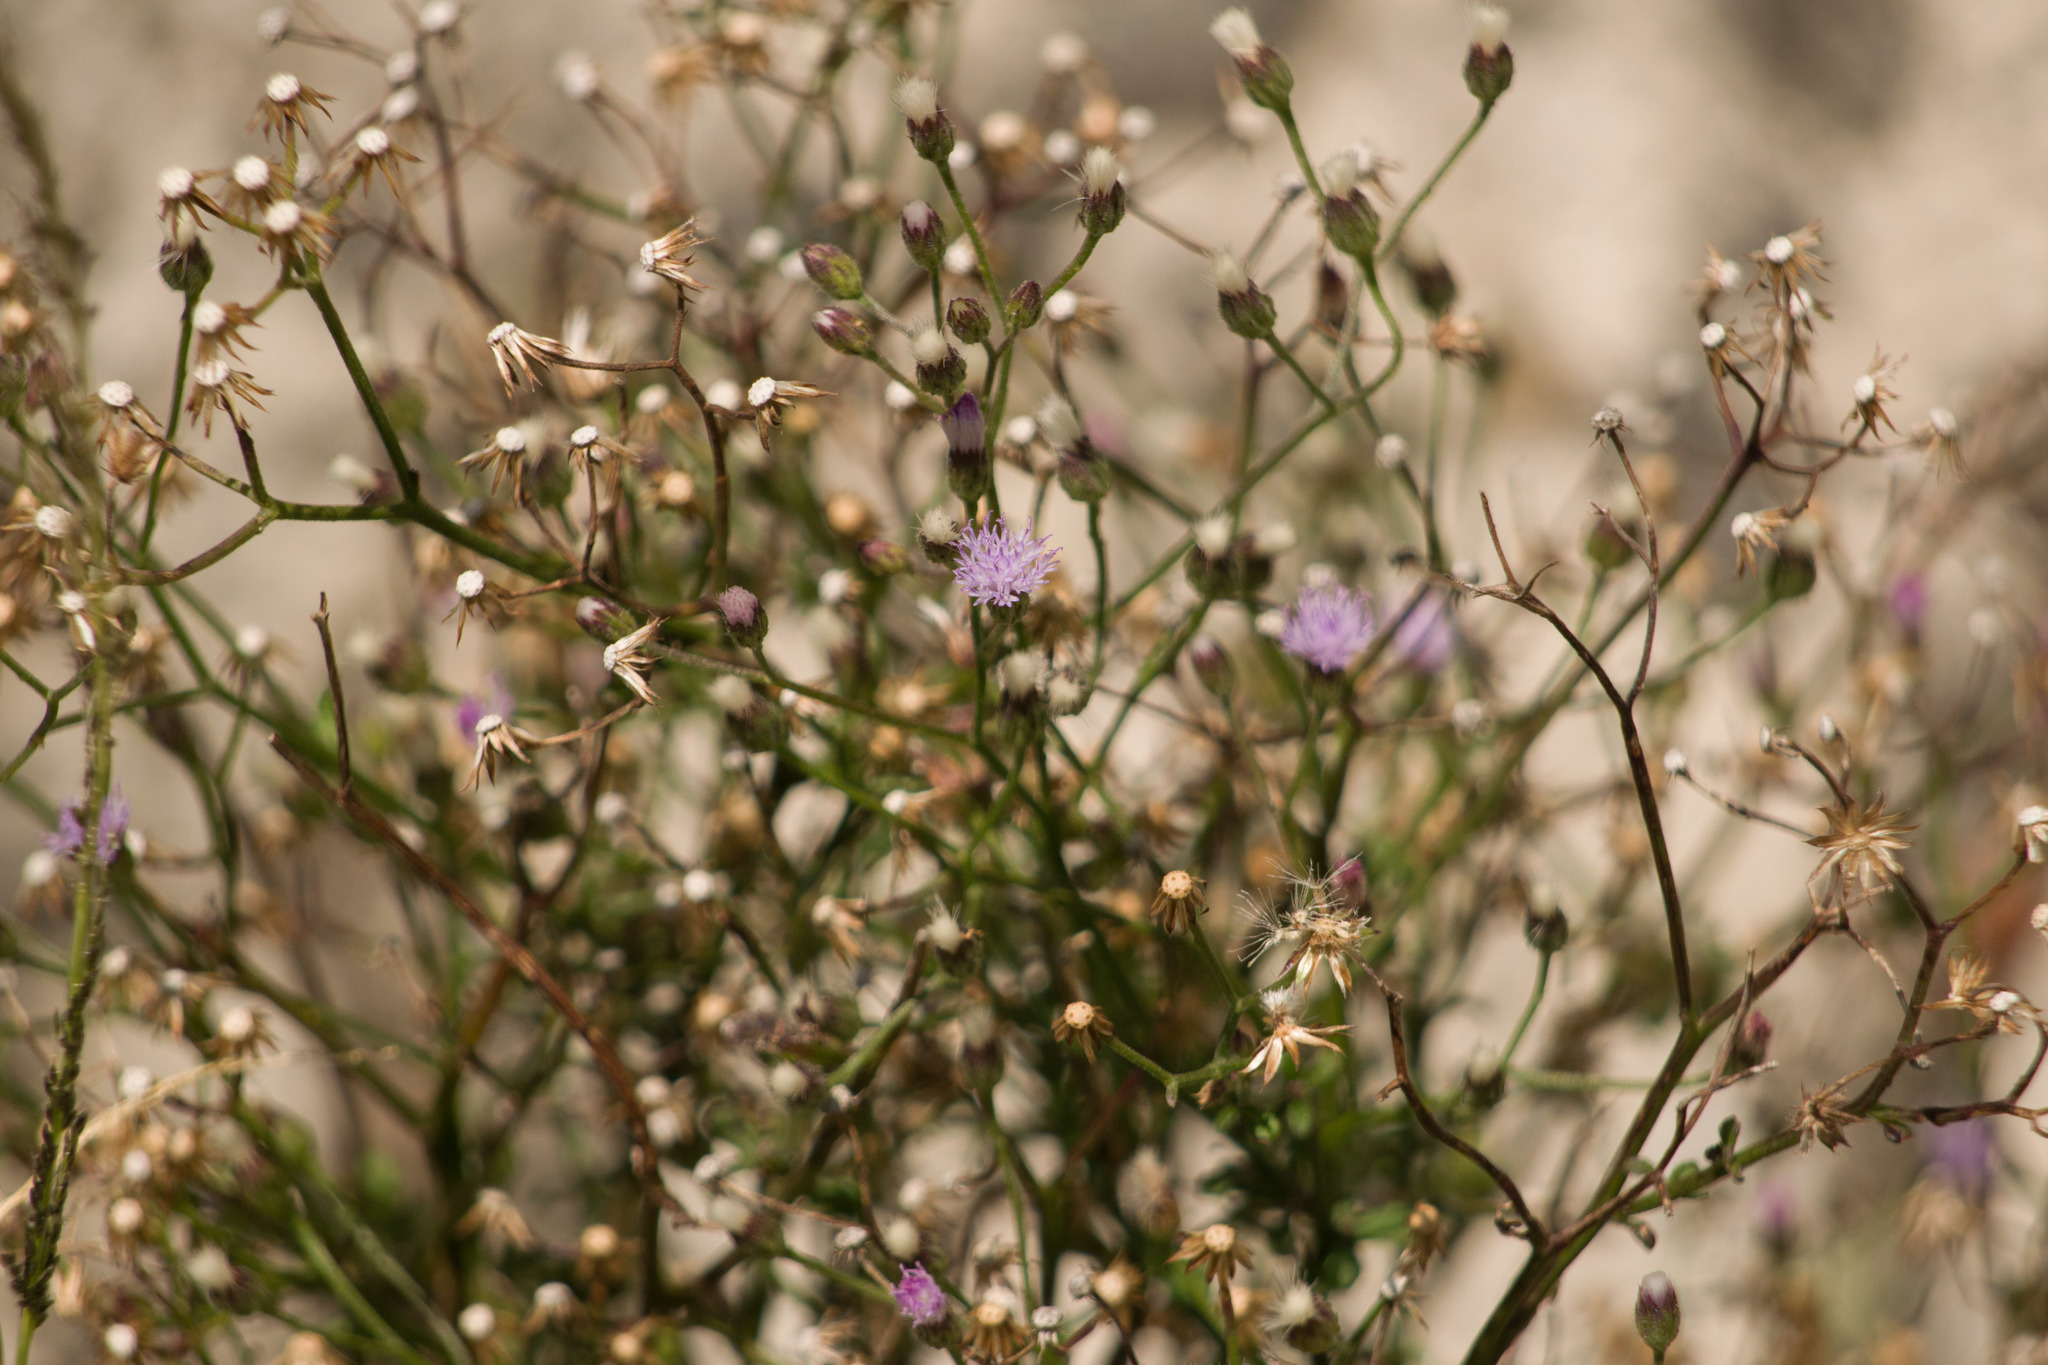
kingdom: Plantae
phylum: Tracheophyta
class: Magnoliopsida
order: Asterales
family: Asteraceae
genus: Cyanthillium
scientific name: Cyanthillium cinereum
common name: Little ironweed
